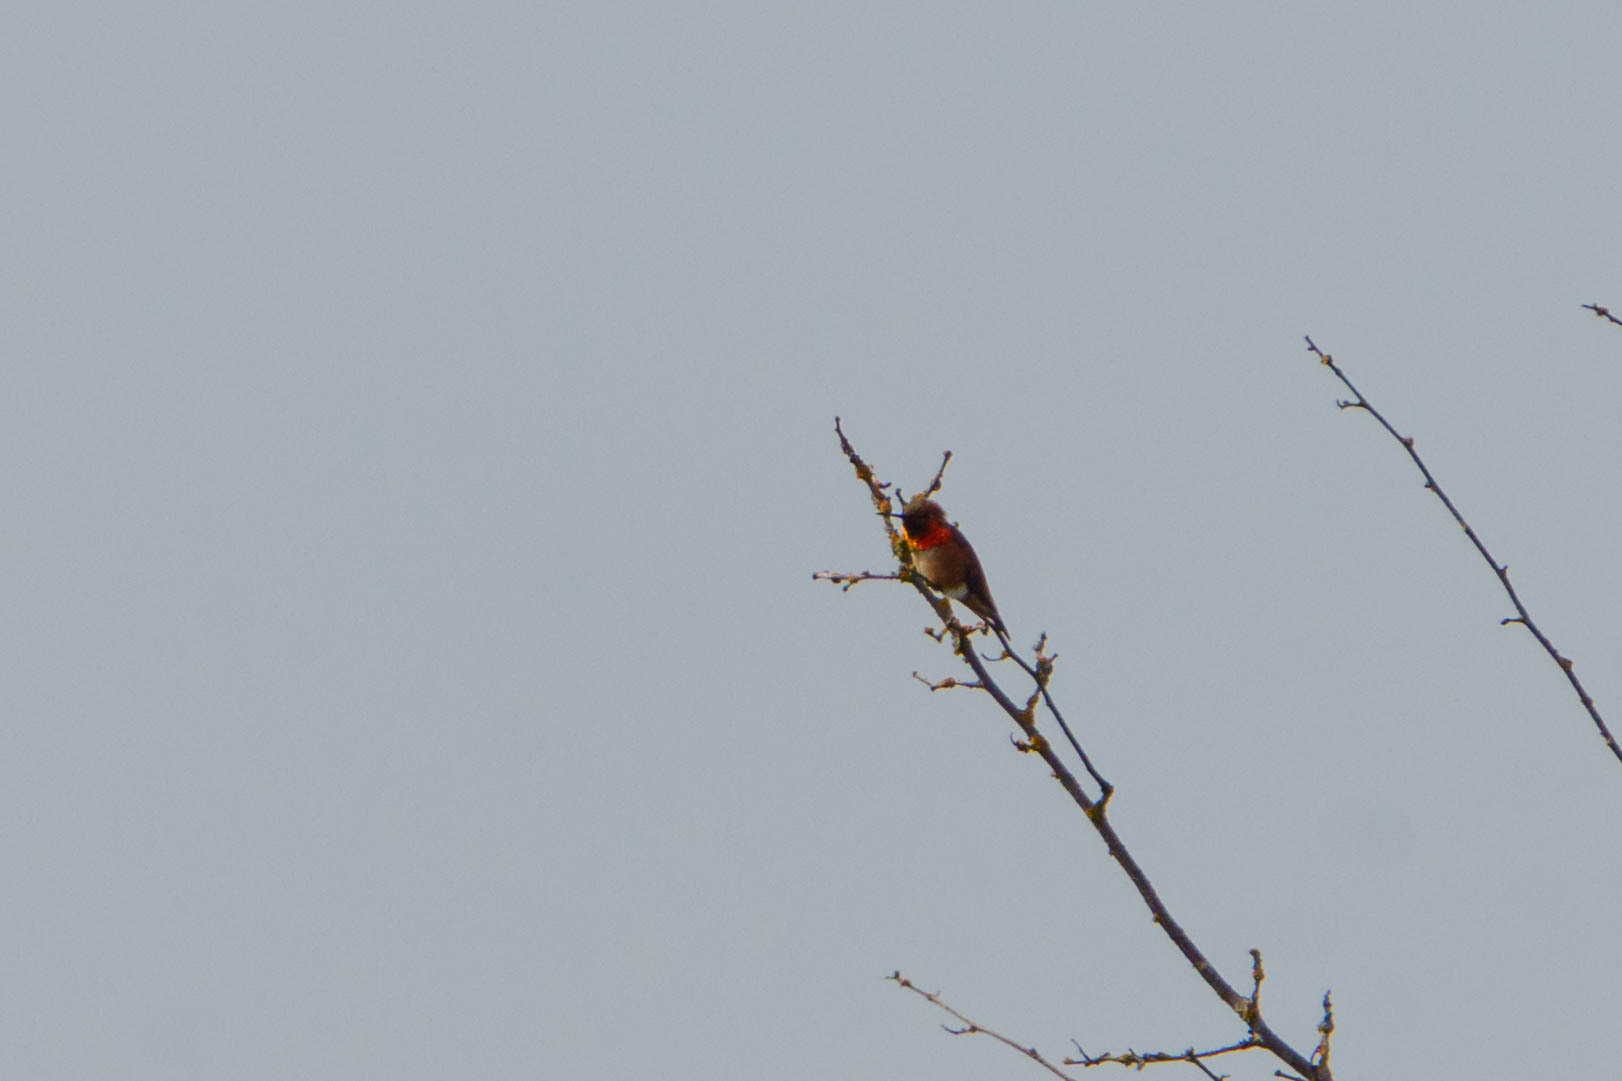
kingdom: Animalia
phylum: Chordata
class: Aves
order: Apodiformes
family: Trochilidae
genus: Selasphorus
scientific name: Selasphorus rufus
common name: Rufous hummingbird
